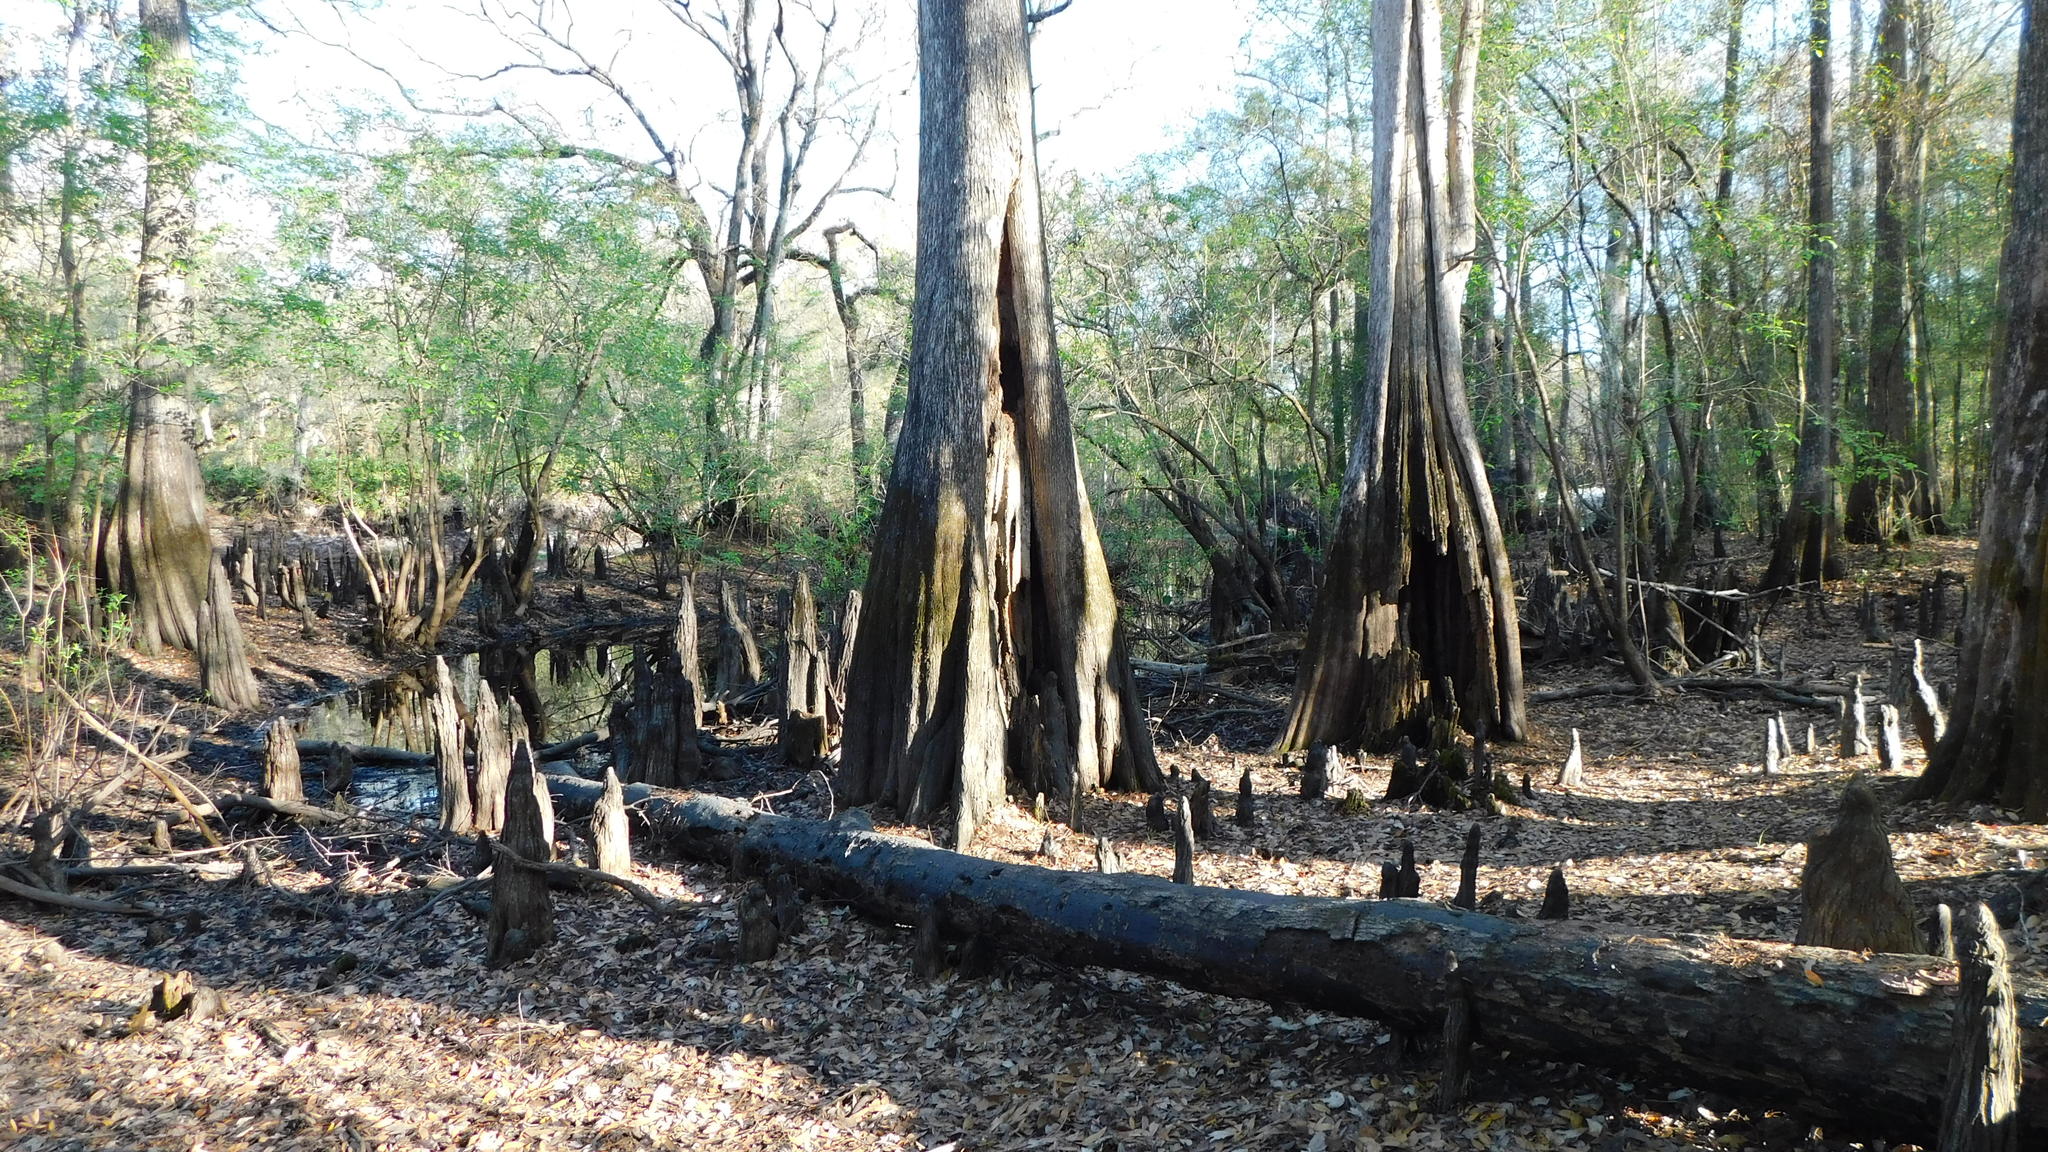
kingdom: Plantae
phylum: Tracheophyta
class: Pinopsida
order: Pinales
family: Cupressaceae
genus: Taxodium
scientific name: Taxodium distichum
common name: Bald cypress
